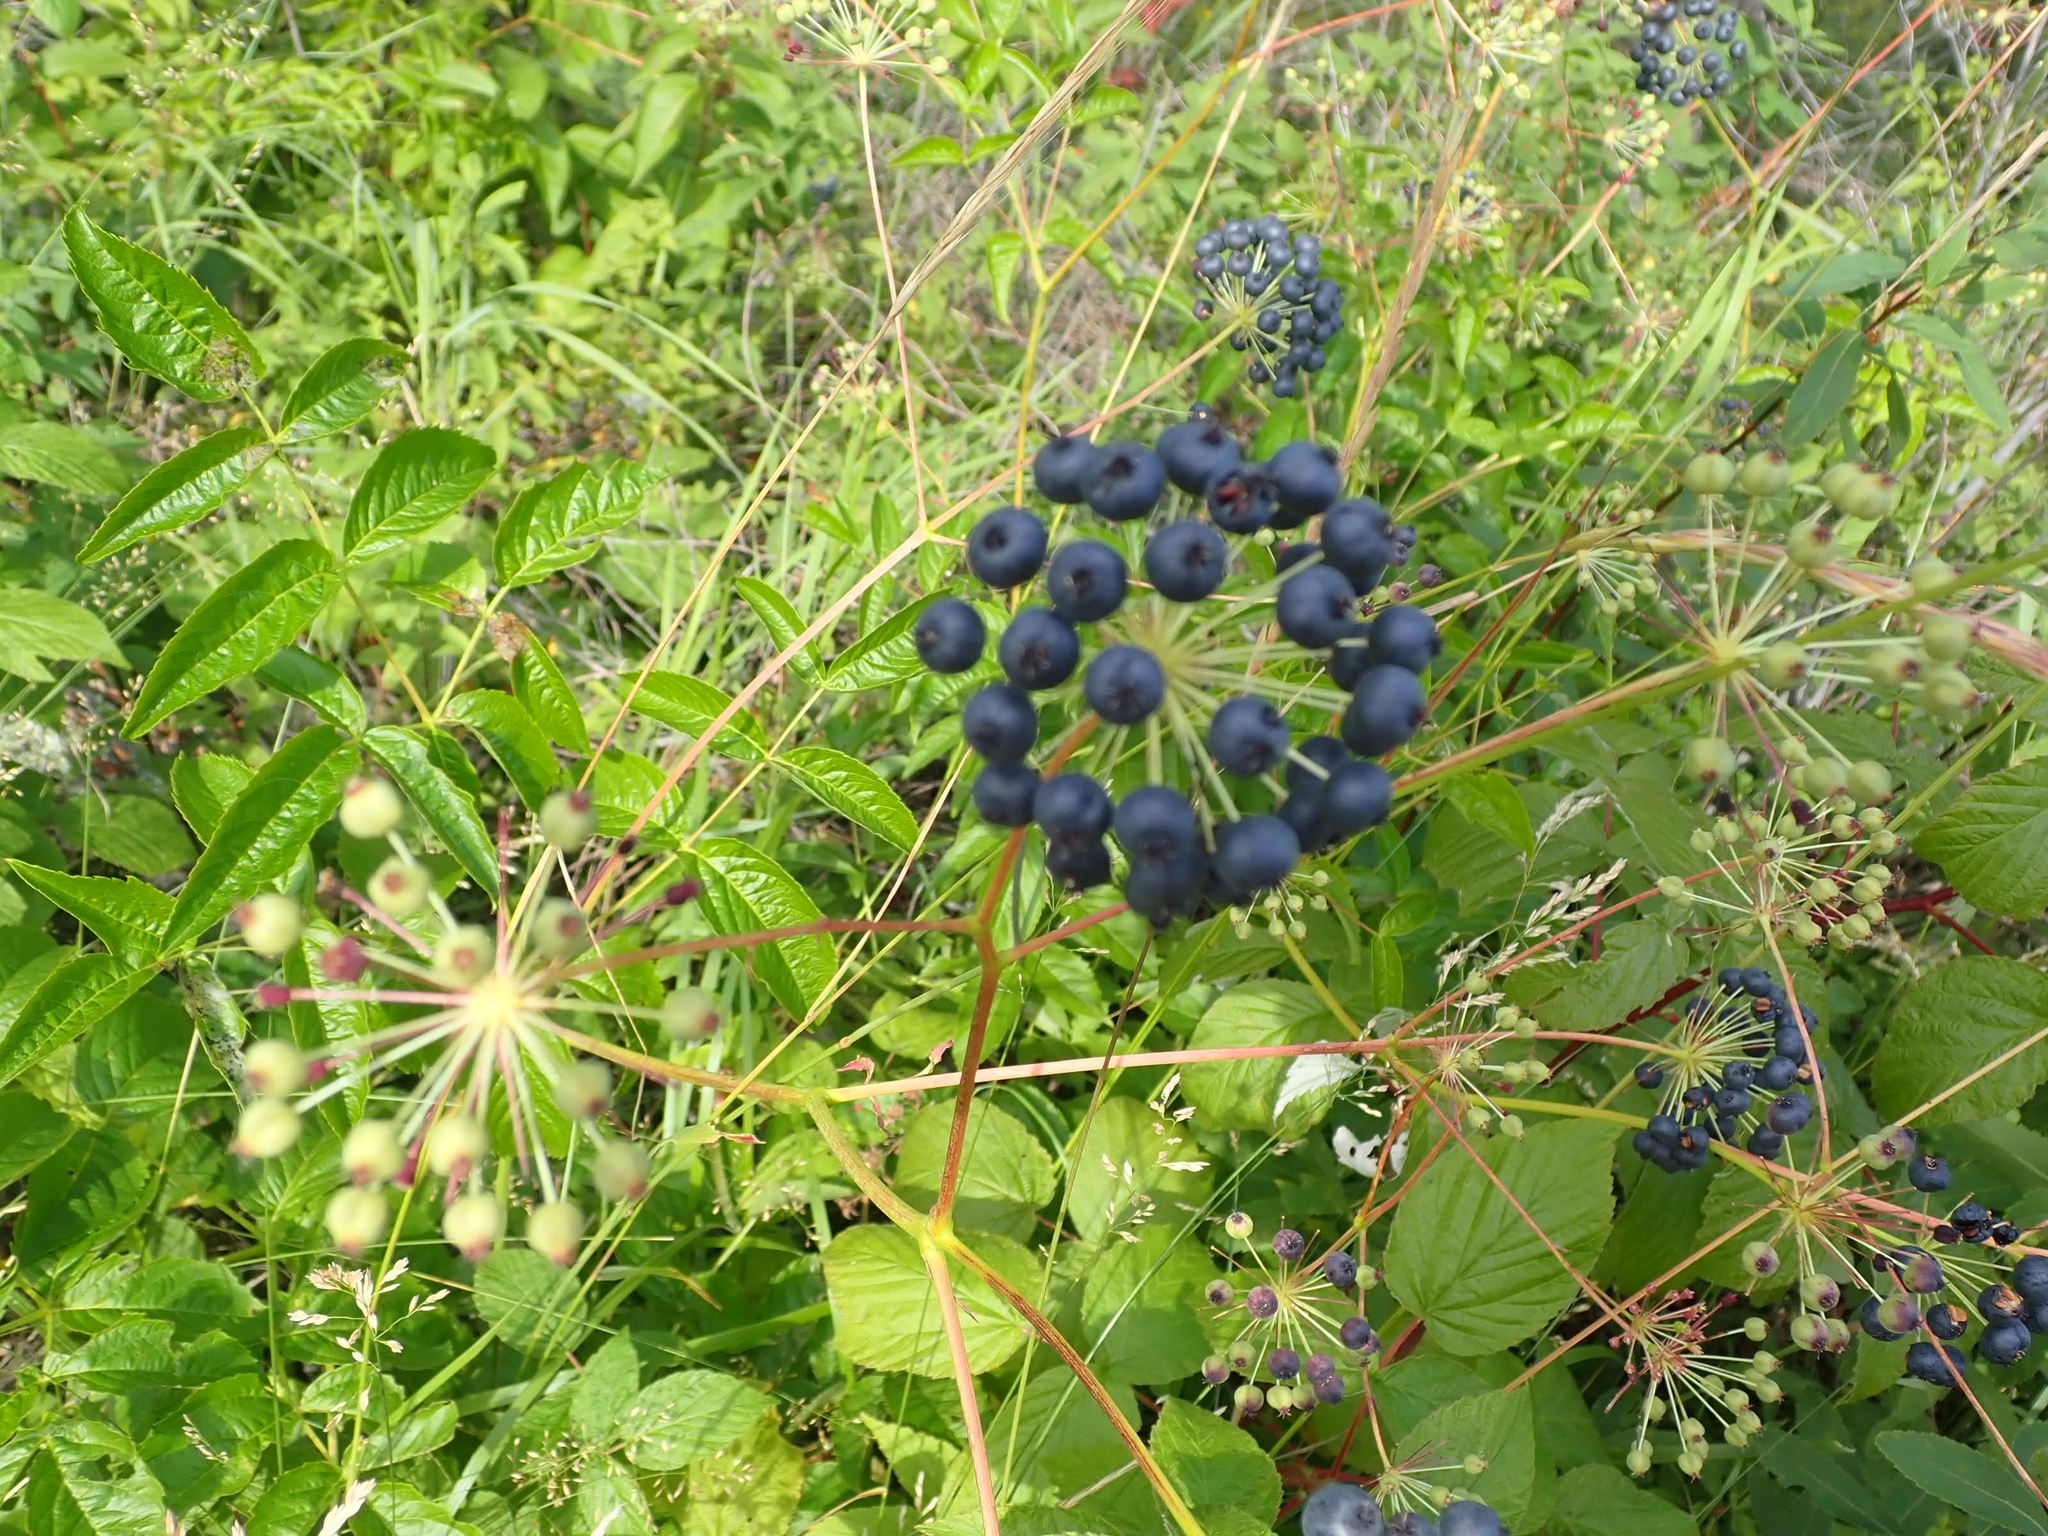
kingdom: Plantae
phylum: Tracheophyta
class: Magnoliopsida
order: Apiales
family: Araliaceae
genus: Aralia
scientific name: Aralia hispida
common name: Bristly sarsaparilla
